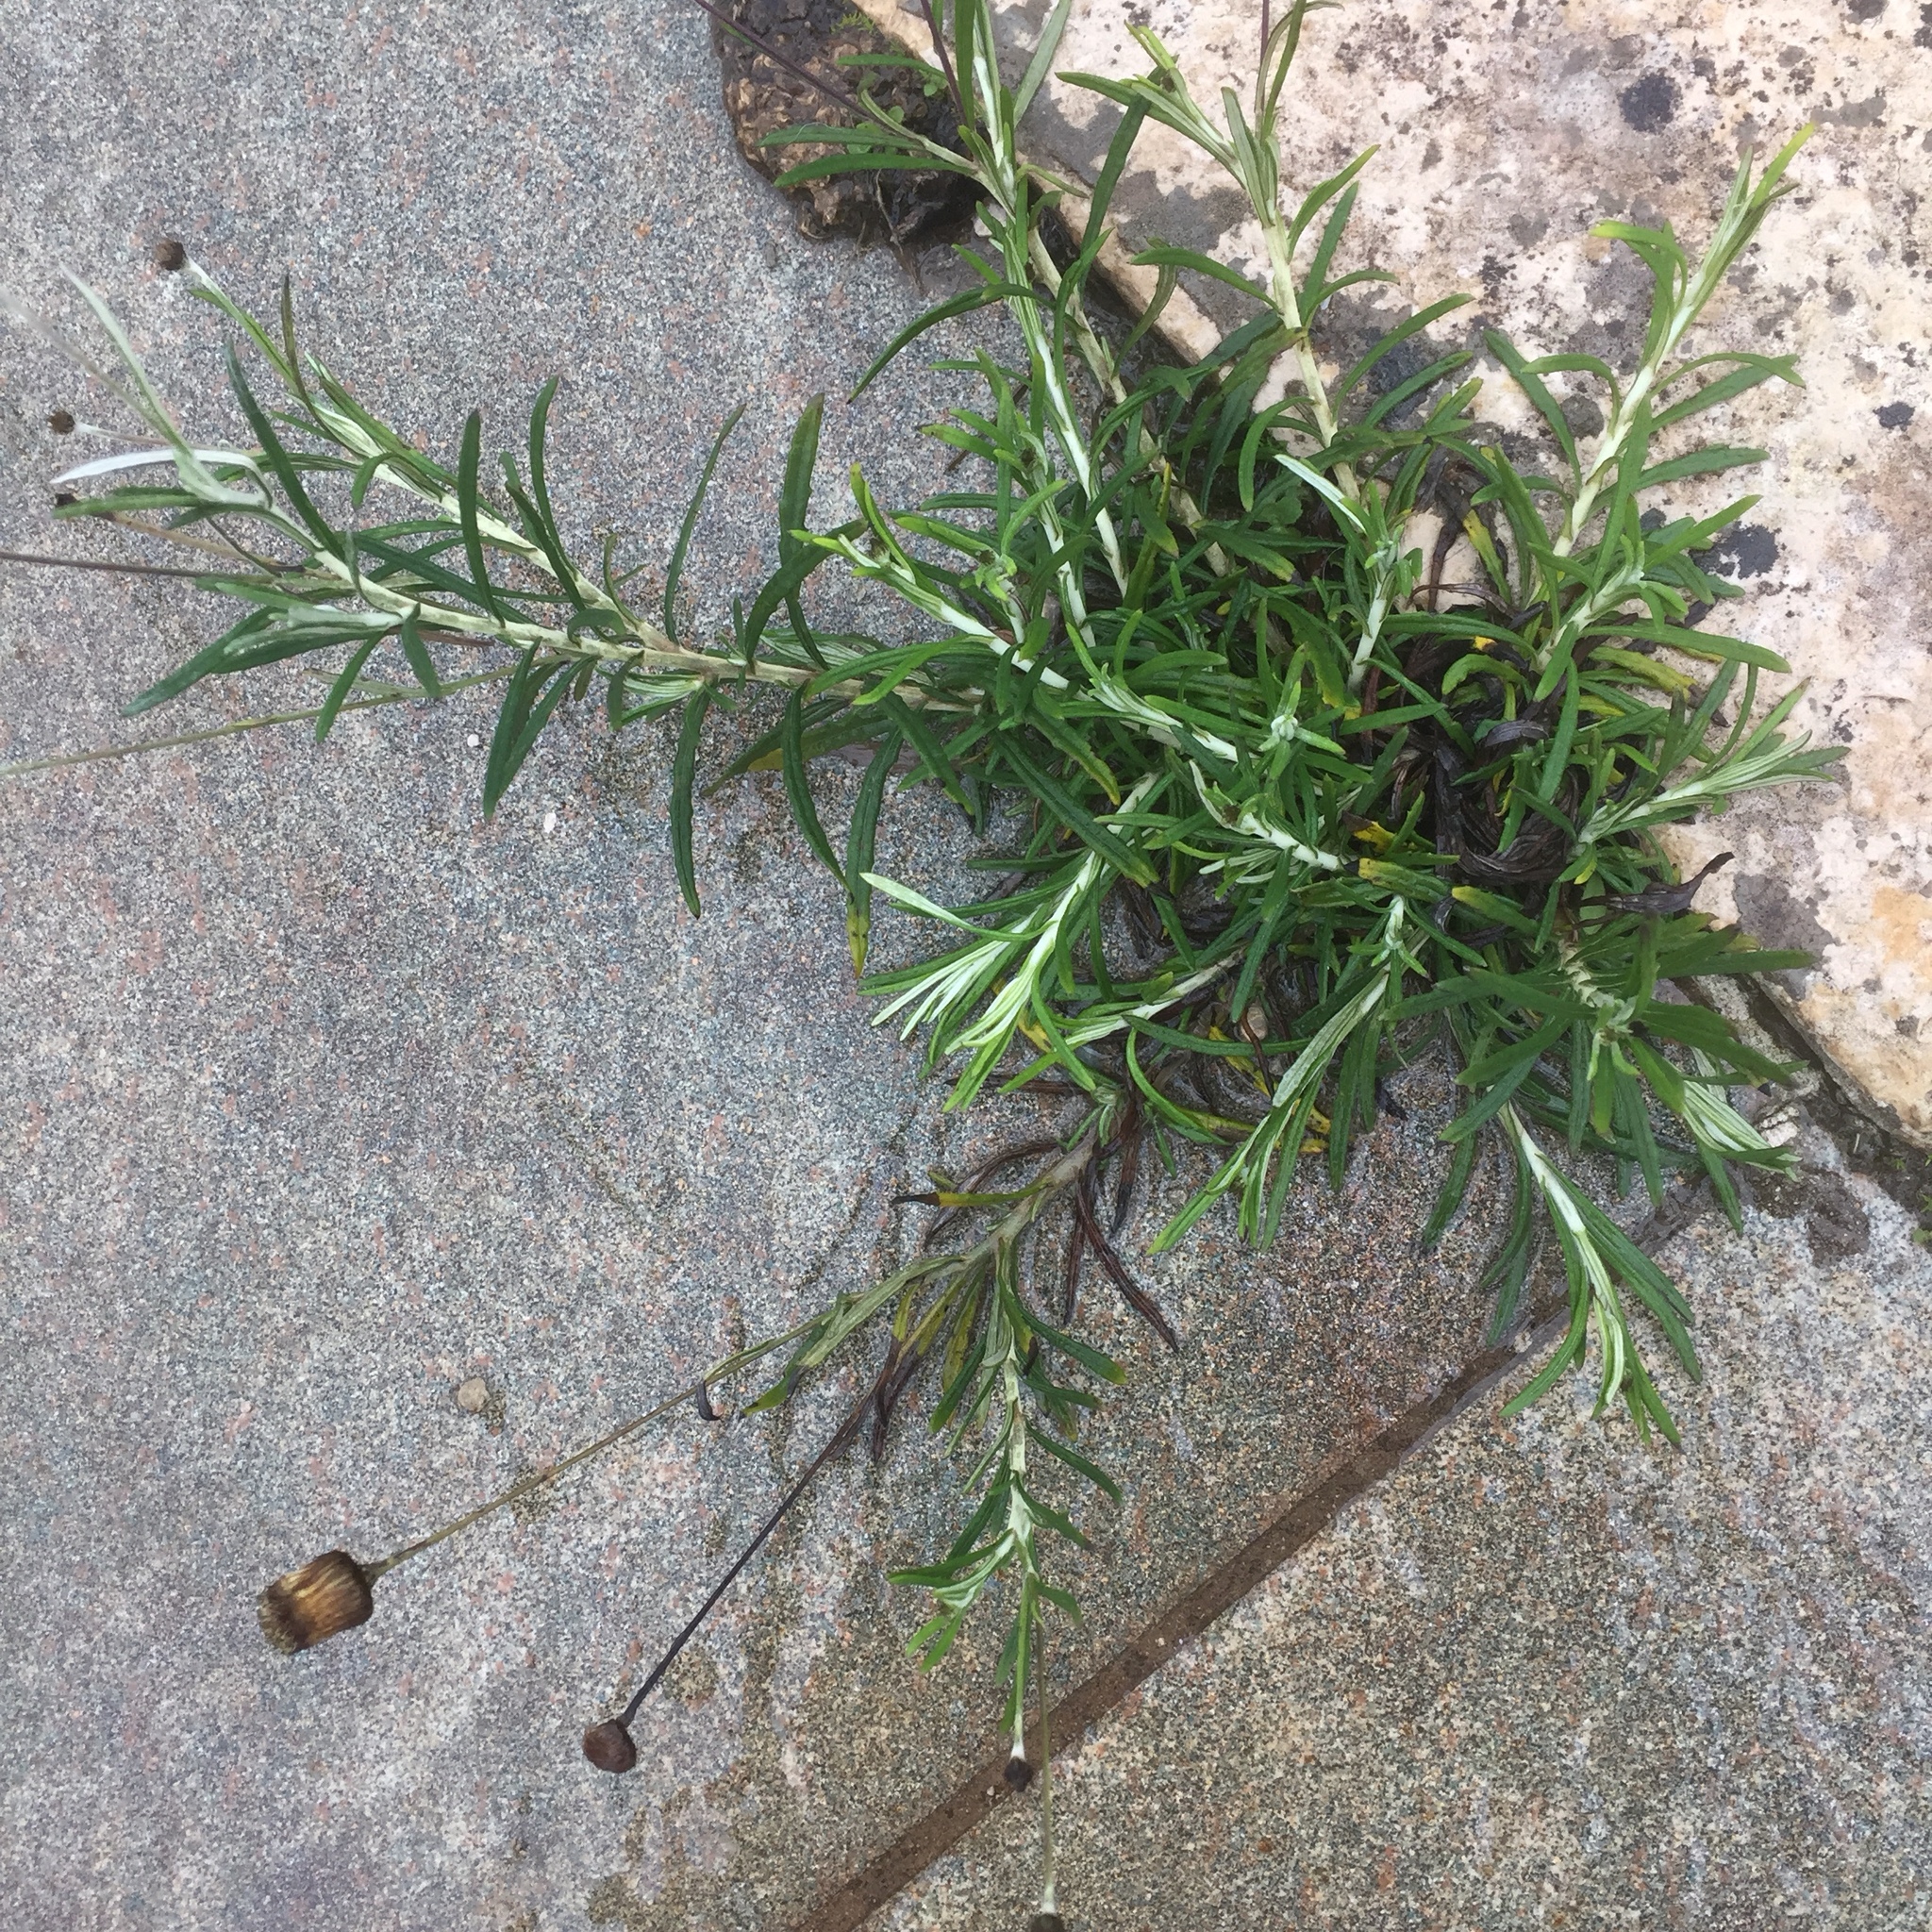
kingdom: Plantae
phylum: Tracheophyta
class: Magnoliopsida
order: Asterales
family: Asteraceae
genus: Phagnalon
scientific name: Phagnalon saxatile
